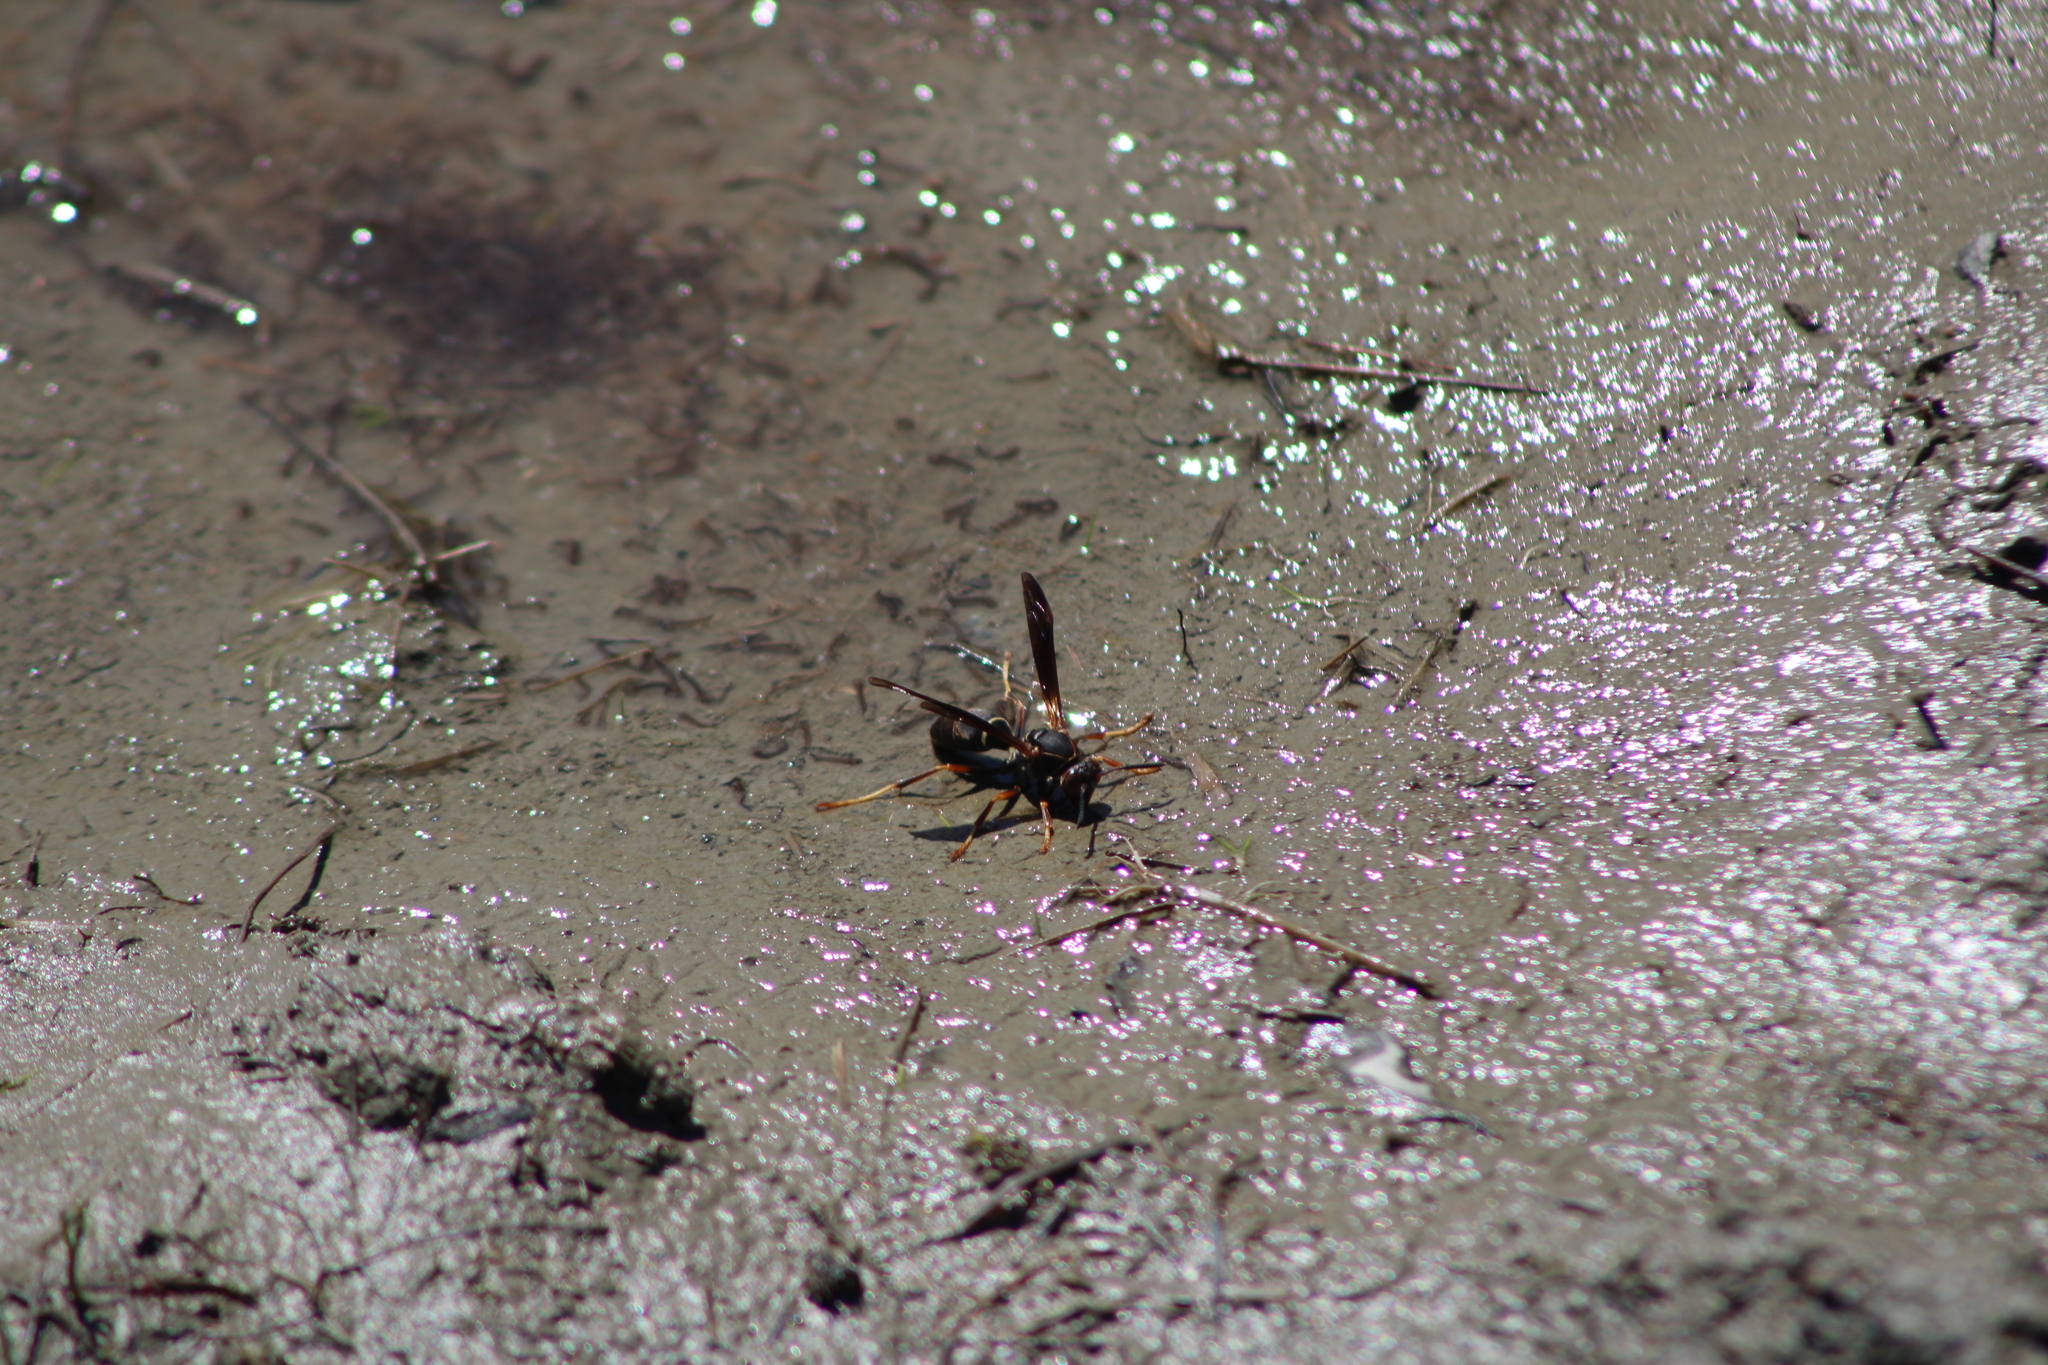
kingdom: Animalia
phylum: Arthropoda
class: Insecta
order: Hymenoptera
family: Eumenidae
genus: Polistes
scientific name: Polistes fuscatus
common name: Dark paper wasp
